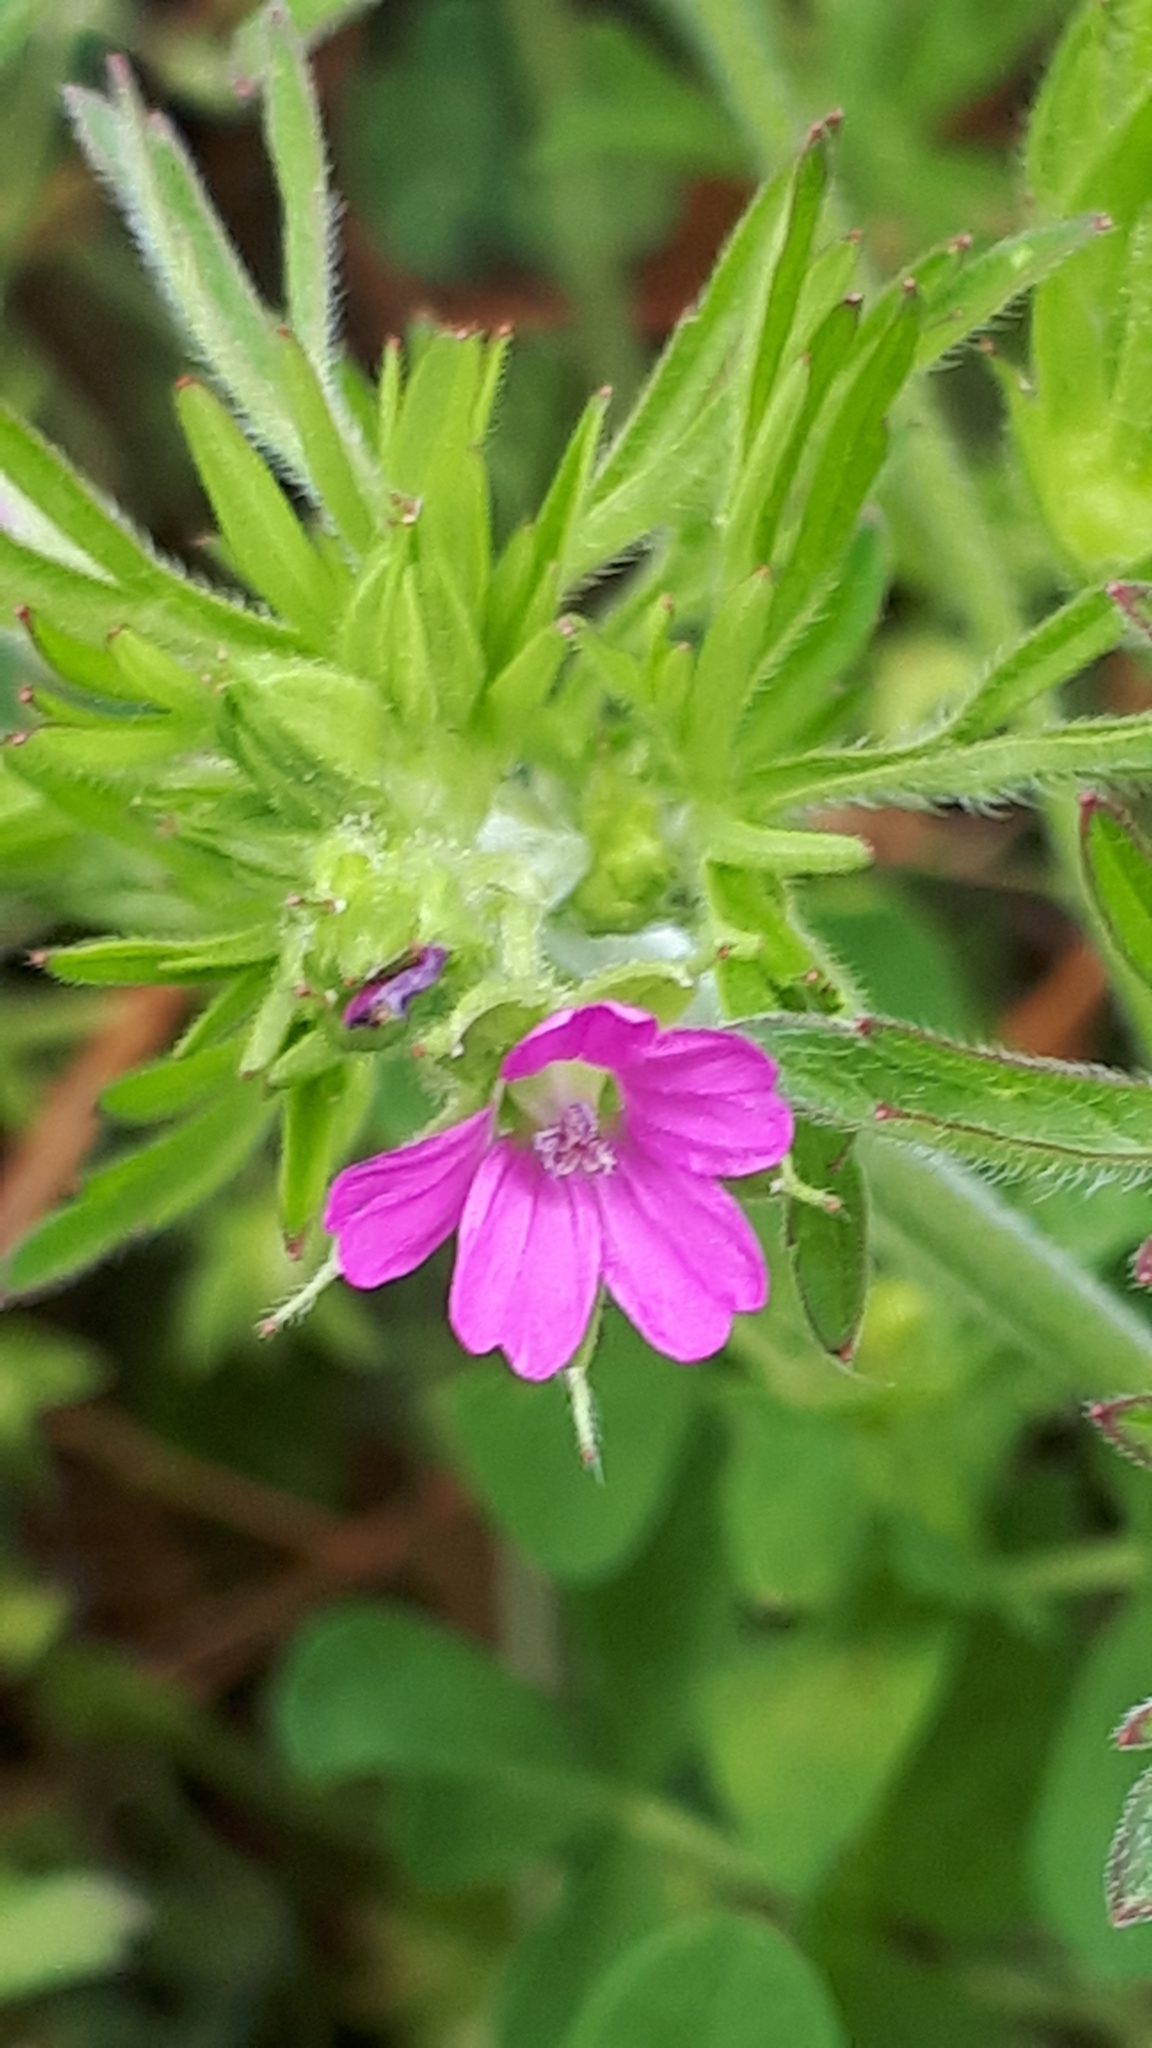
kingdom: Plantae
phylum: Tracheophyta
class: Magnoliopsida
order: Geraniales
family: Geraniaceae
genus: Geranium
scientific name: Geranium dissectum
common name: Cut-leaved crane's-bill
